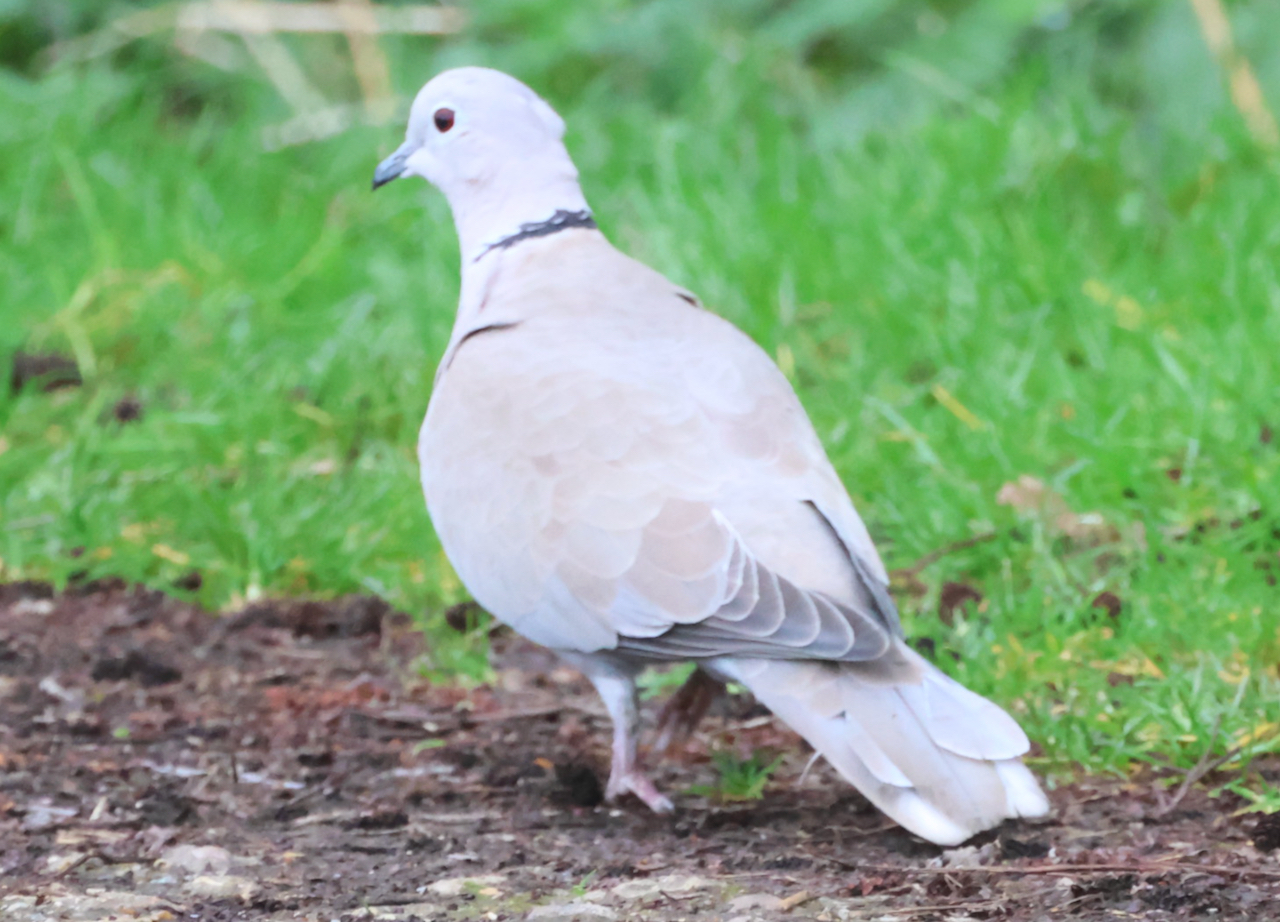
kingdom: Animalia
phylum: Chordata
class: Aves
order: Columbiformes
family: Columbidae
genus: Streptopelia
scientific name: Streptopelia decaocto
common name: Eurasian collared dove
